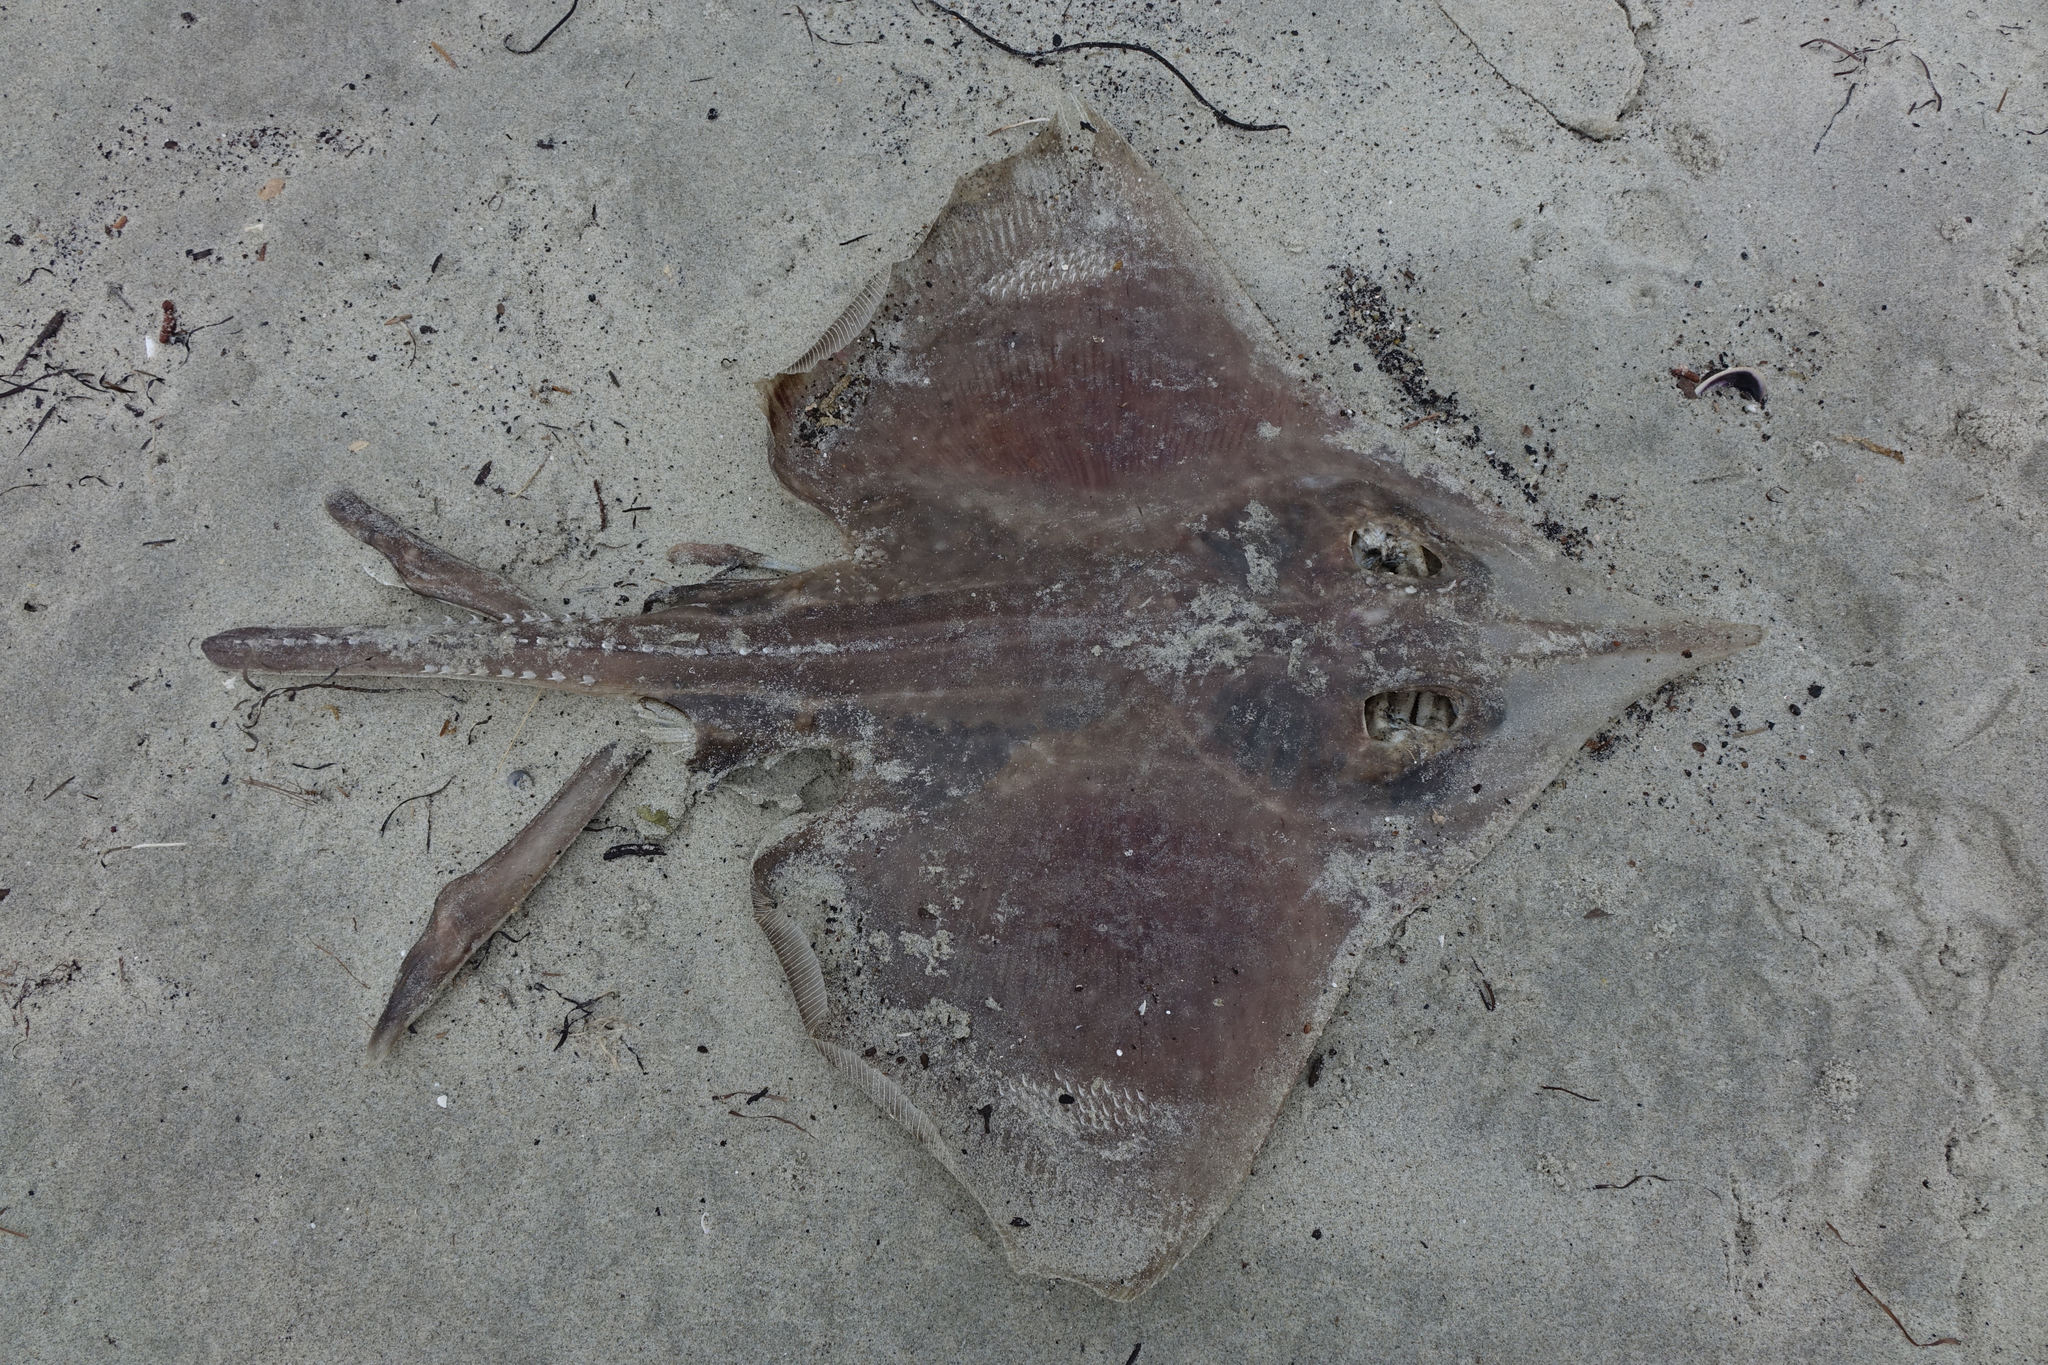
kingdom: Animalia
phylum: Chordata
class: Elasmobranchii
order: Rajiformes
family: Rajidae
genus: Zearaja
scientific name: Zearaja nasuta
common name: New zealand rough skate
